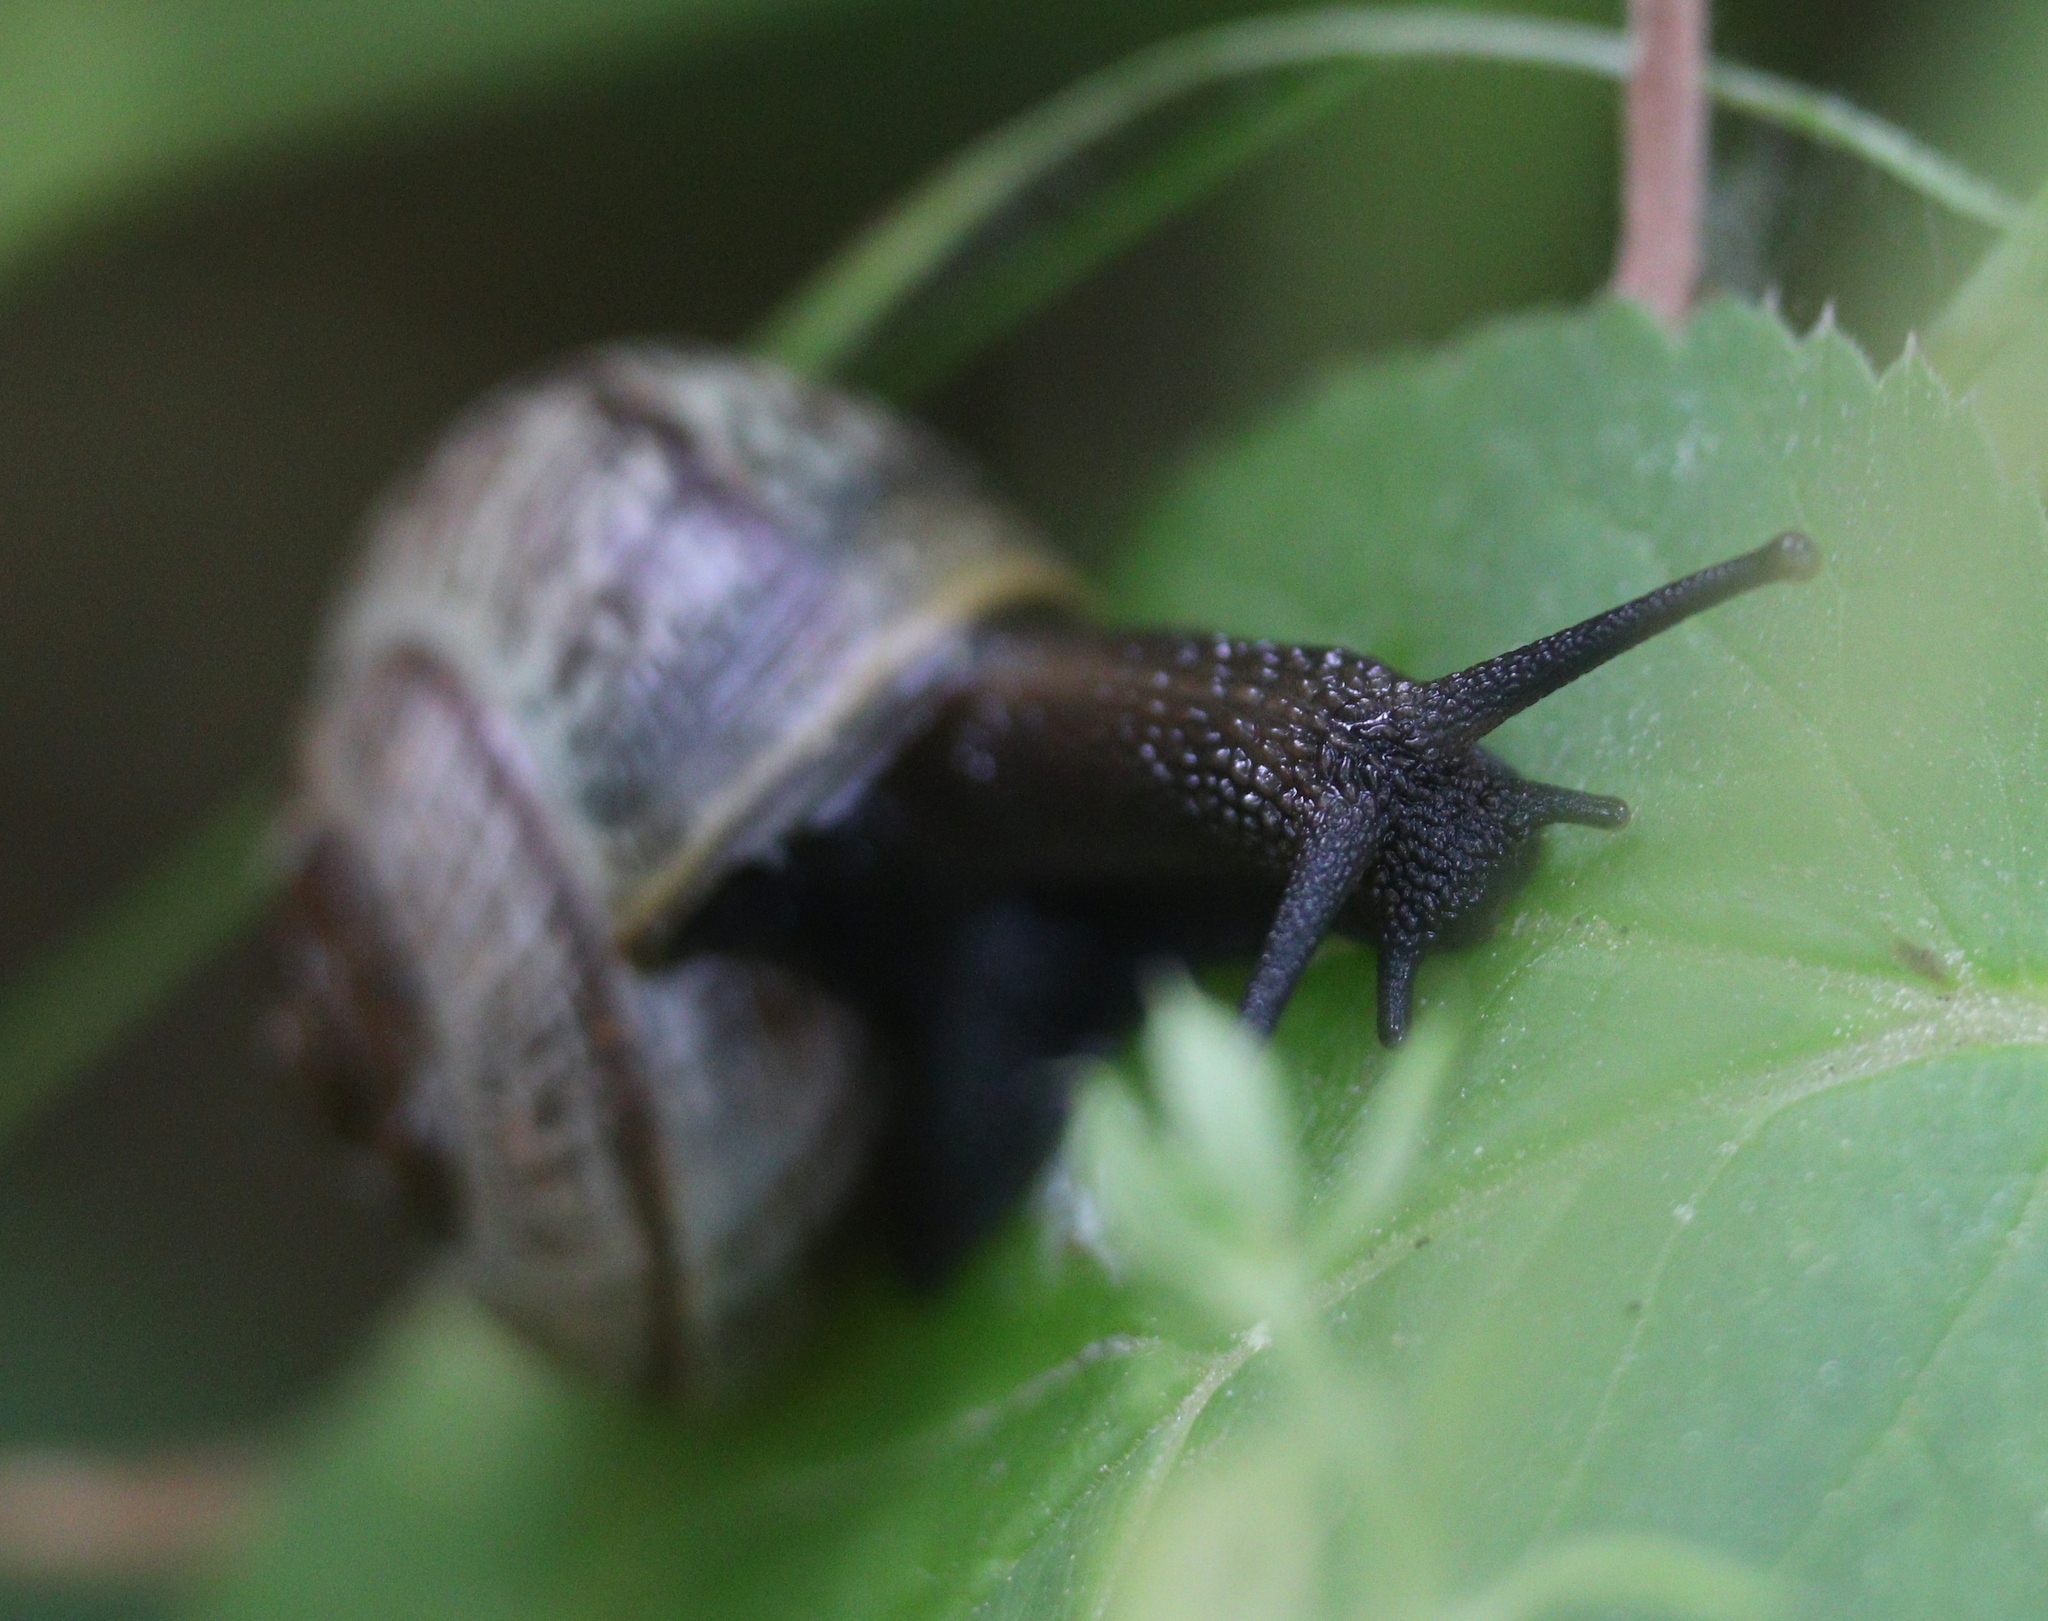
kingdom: Animalia
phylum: Mollusca
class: Gastropoda
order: Stylommatophora
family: Helicidae
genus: Arianta
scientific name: Arianta arbustorum
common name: Copse snail
